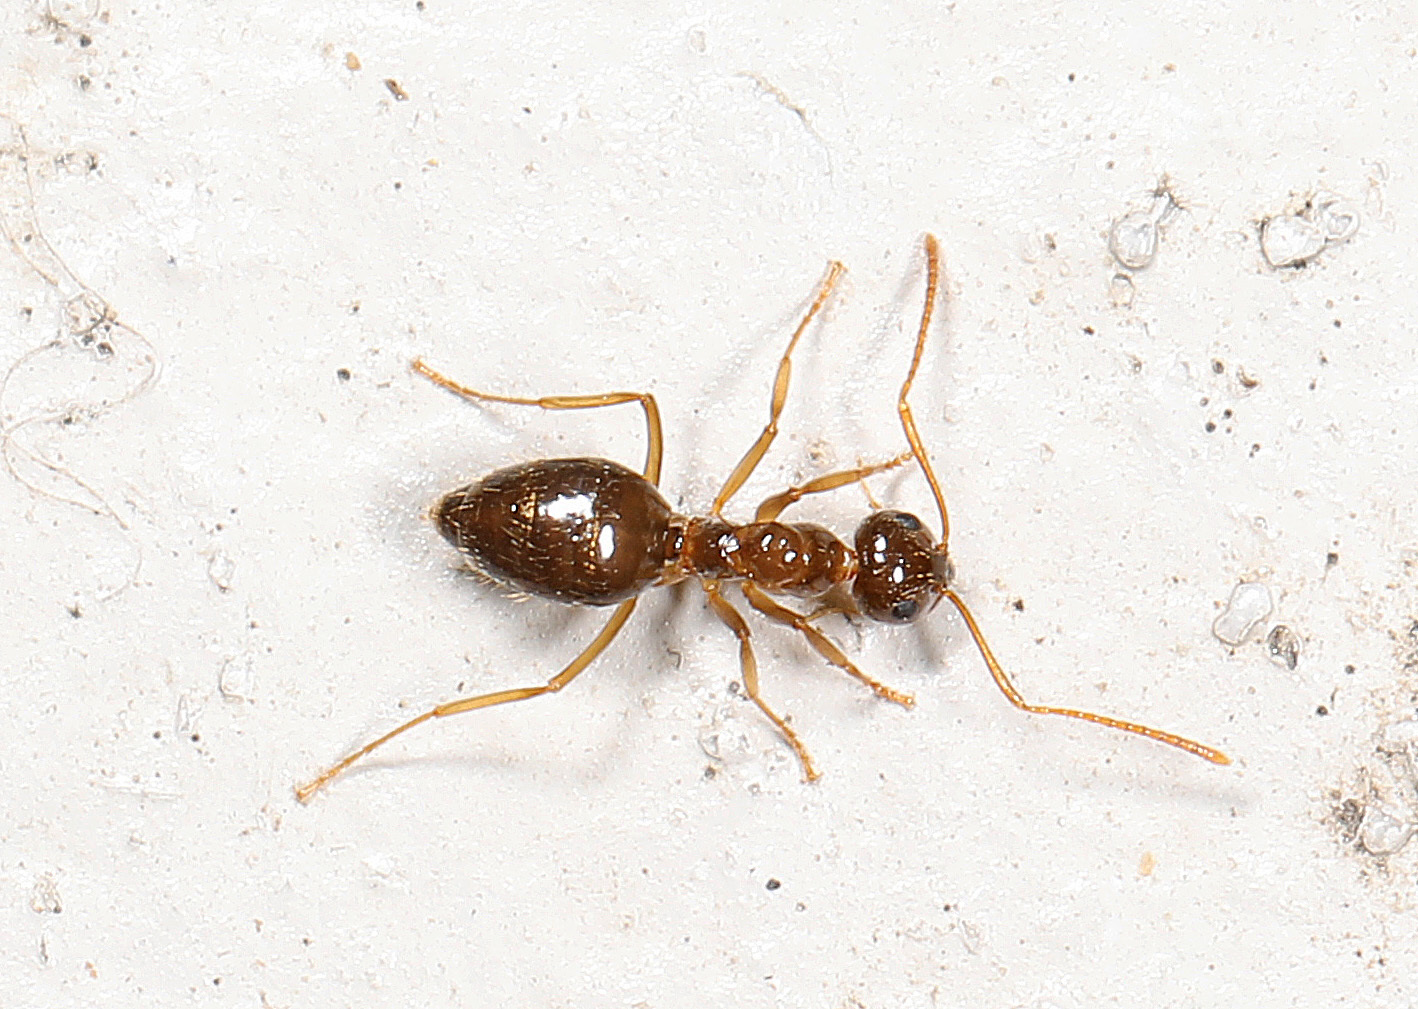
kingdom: Animalia
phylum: Arthropoda
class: Insecta
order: Hymenoptera
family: Formicidae
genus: Prenolepis
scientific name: Prenolepis imparis
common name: Small honey ant
